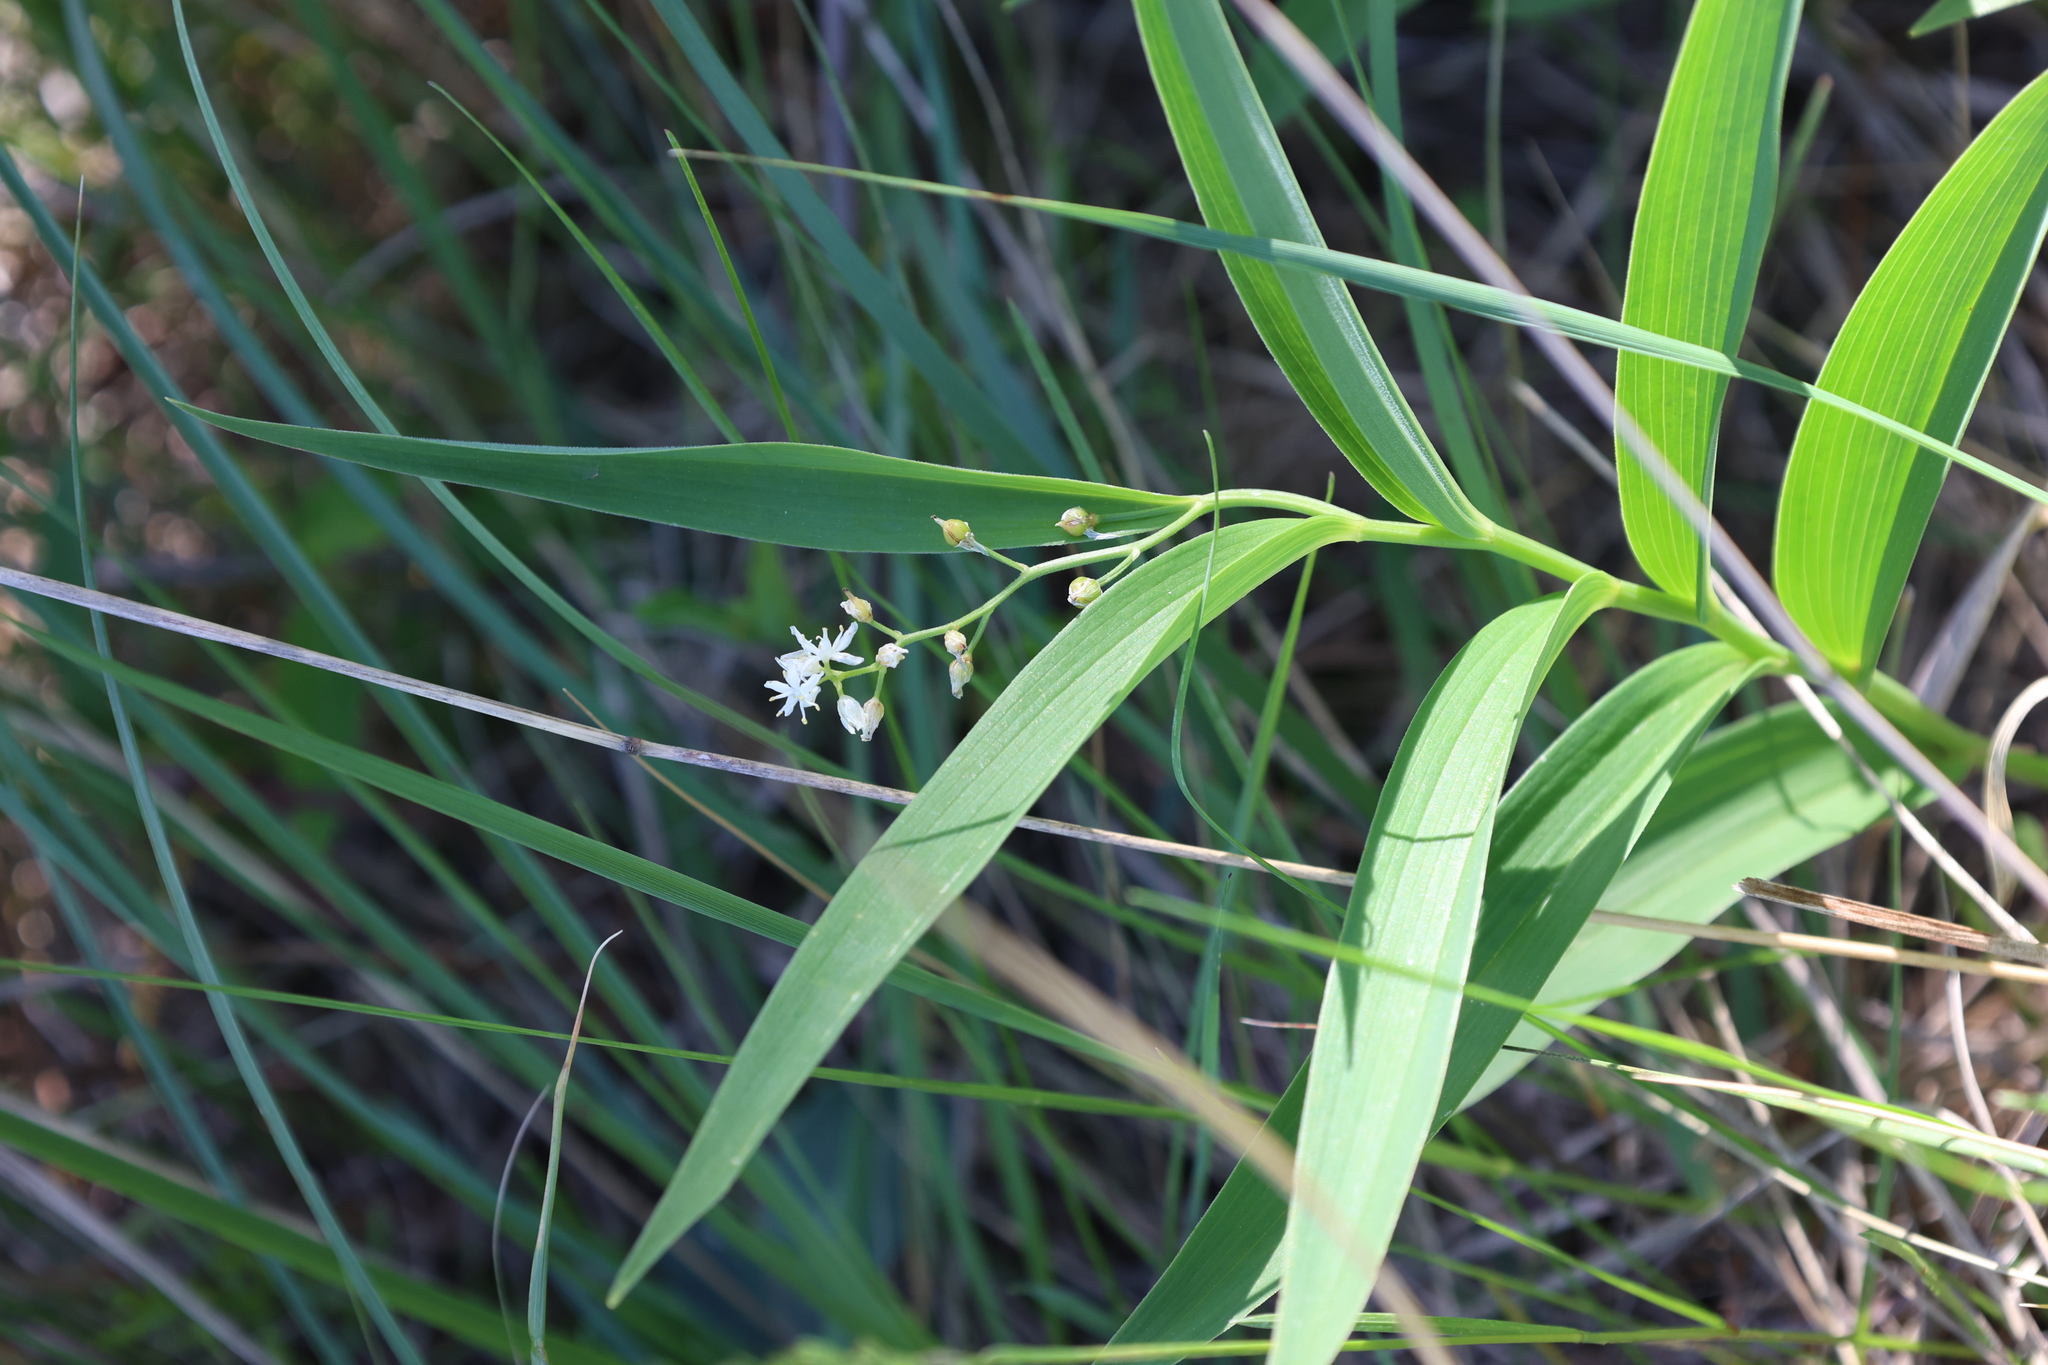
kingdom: Plantae
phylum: Tracheophyta
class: Liliopsida
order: Asparagales
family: Asparagaceae
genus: Maianthemum
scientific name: Maianthemum stellatum
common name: Little false solomon's seal
